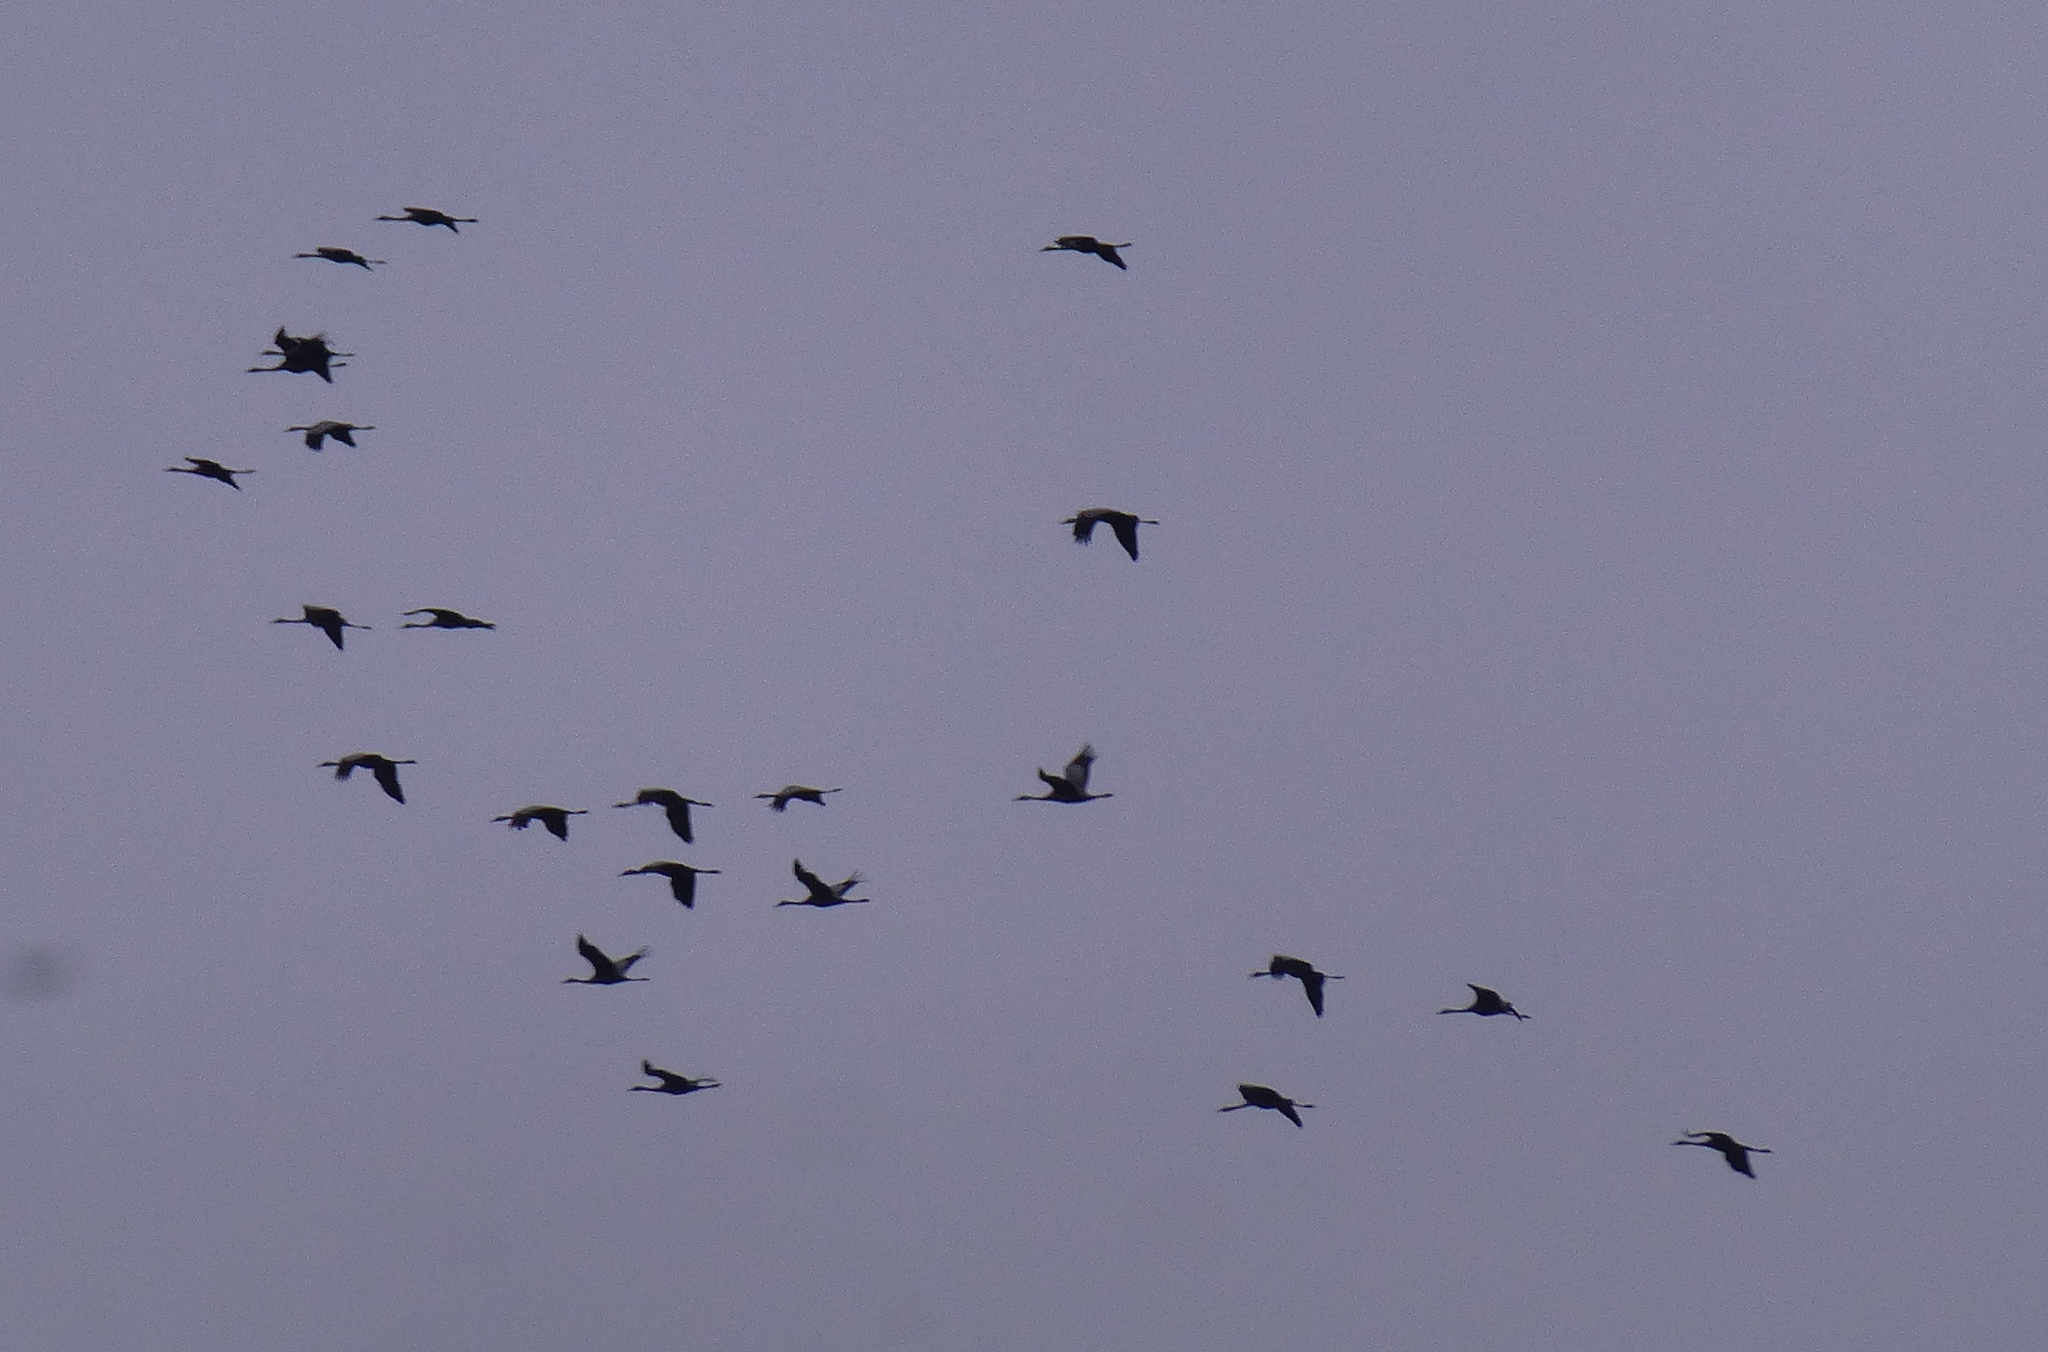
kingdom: Animalia
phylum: Chordata
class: Aves
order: Gruiformes
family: Gruidae
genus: Grus
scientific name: Grus grus
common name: Common crane
